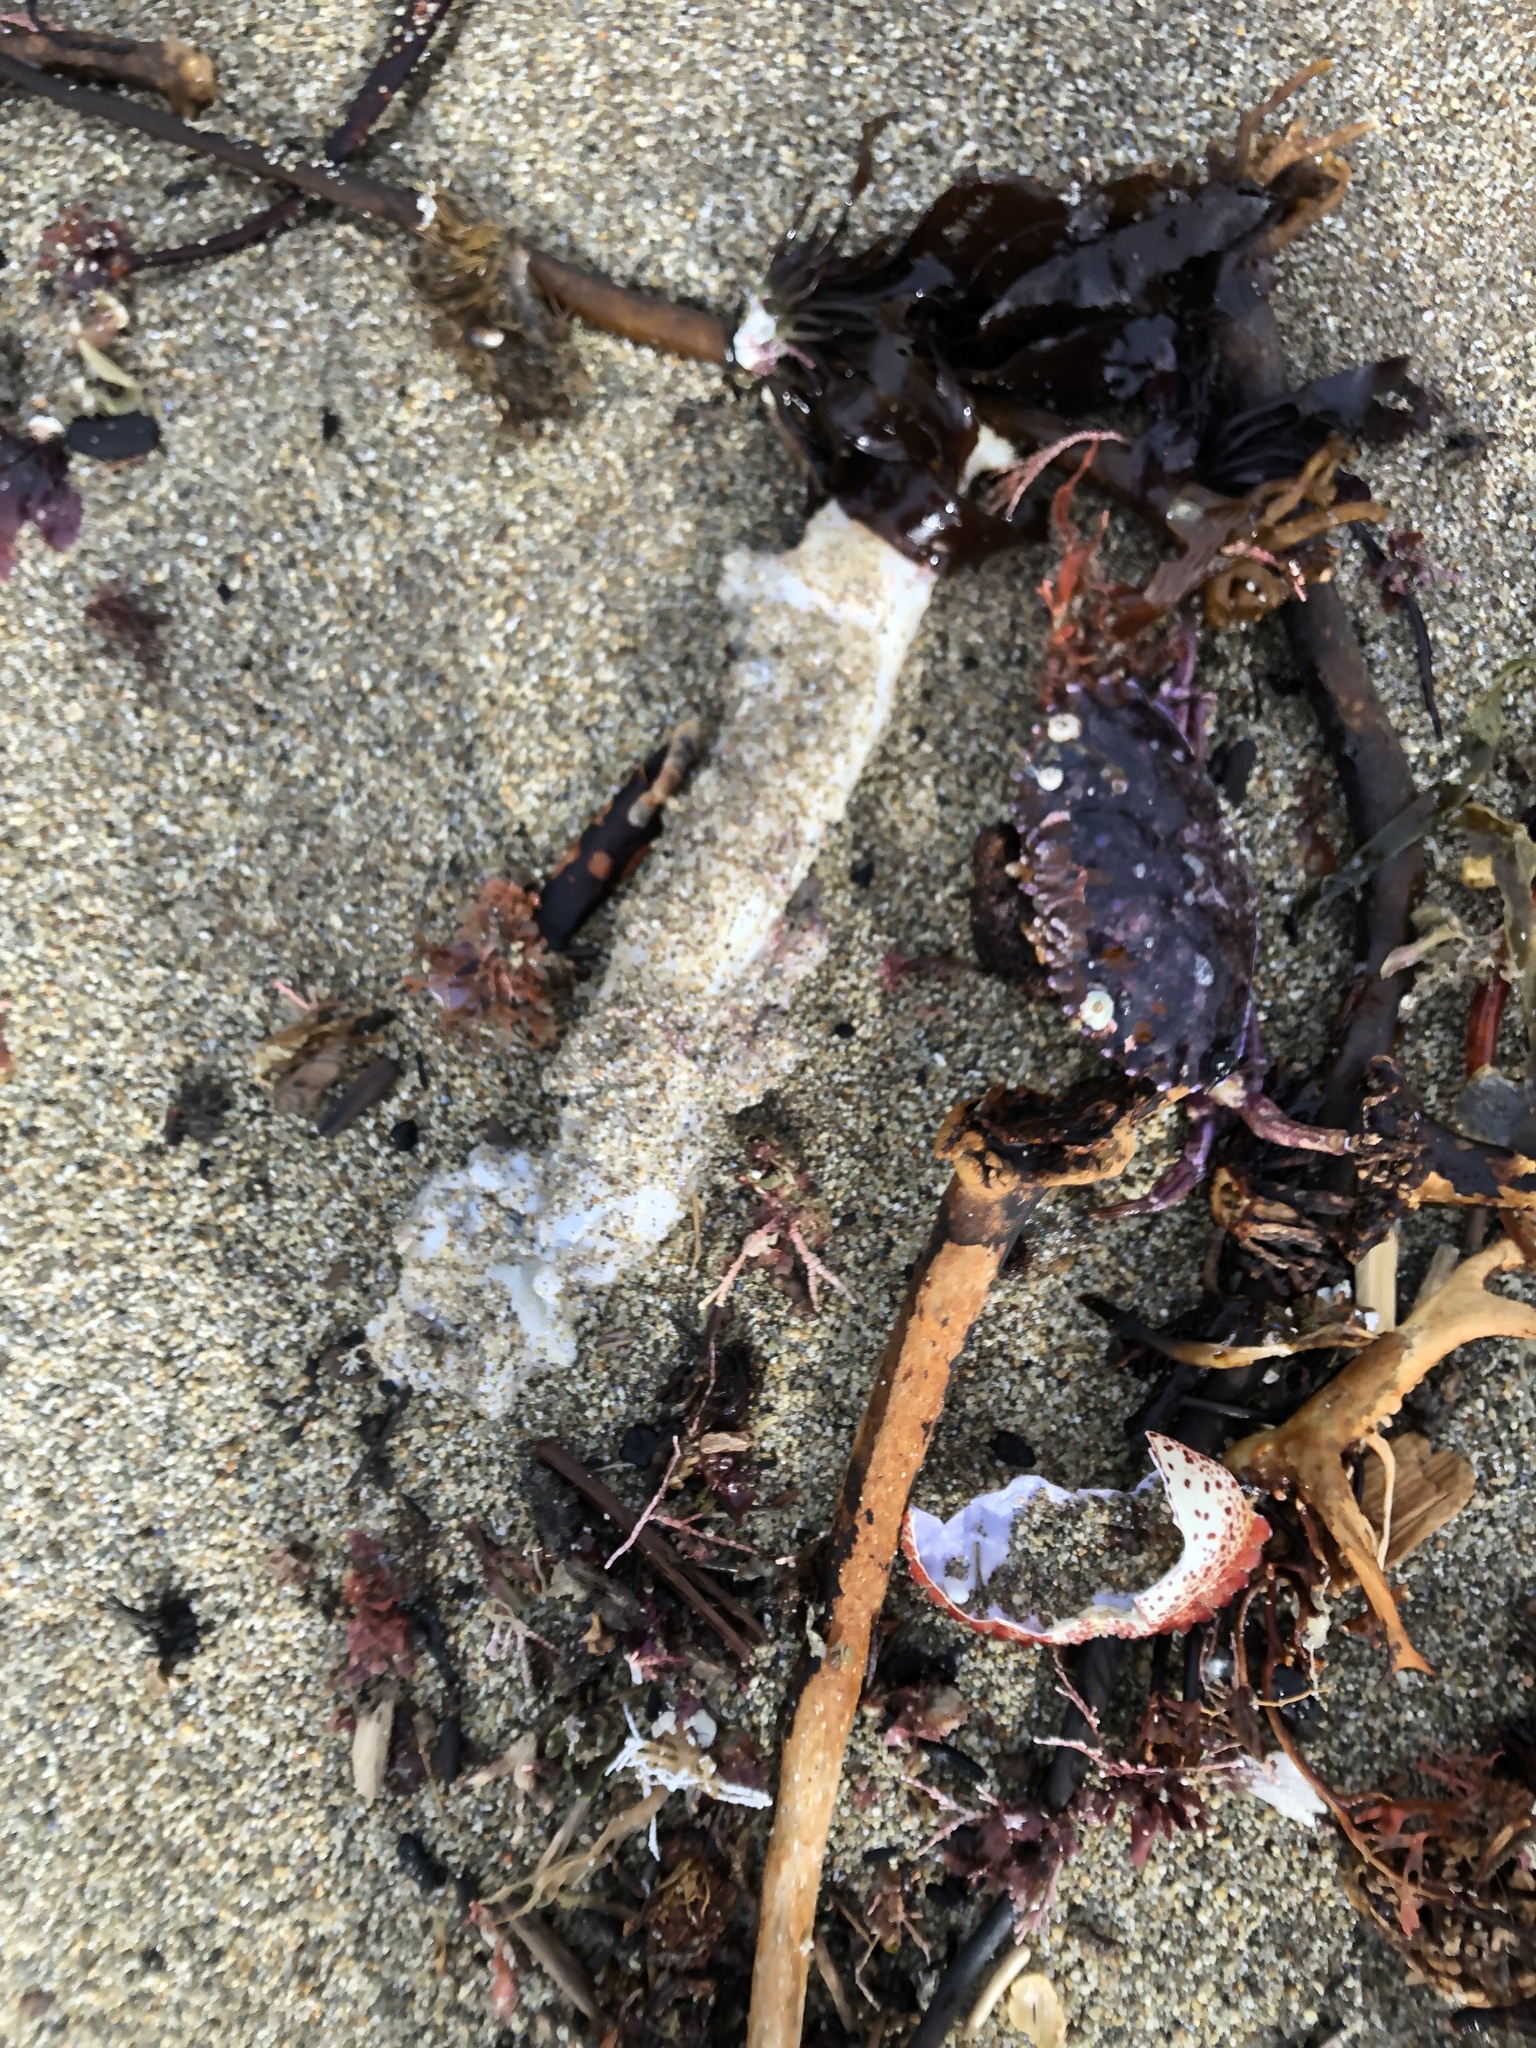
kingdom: Animalia
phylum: Arthropoda
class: Malacostraca
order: Decapoda
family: Cancridae
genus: Romaleon
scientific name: Romaleon antennarium
